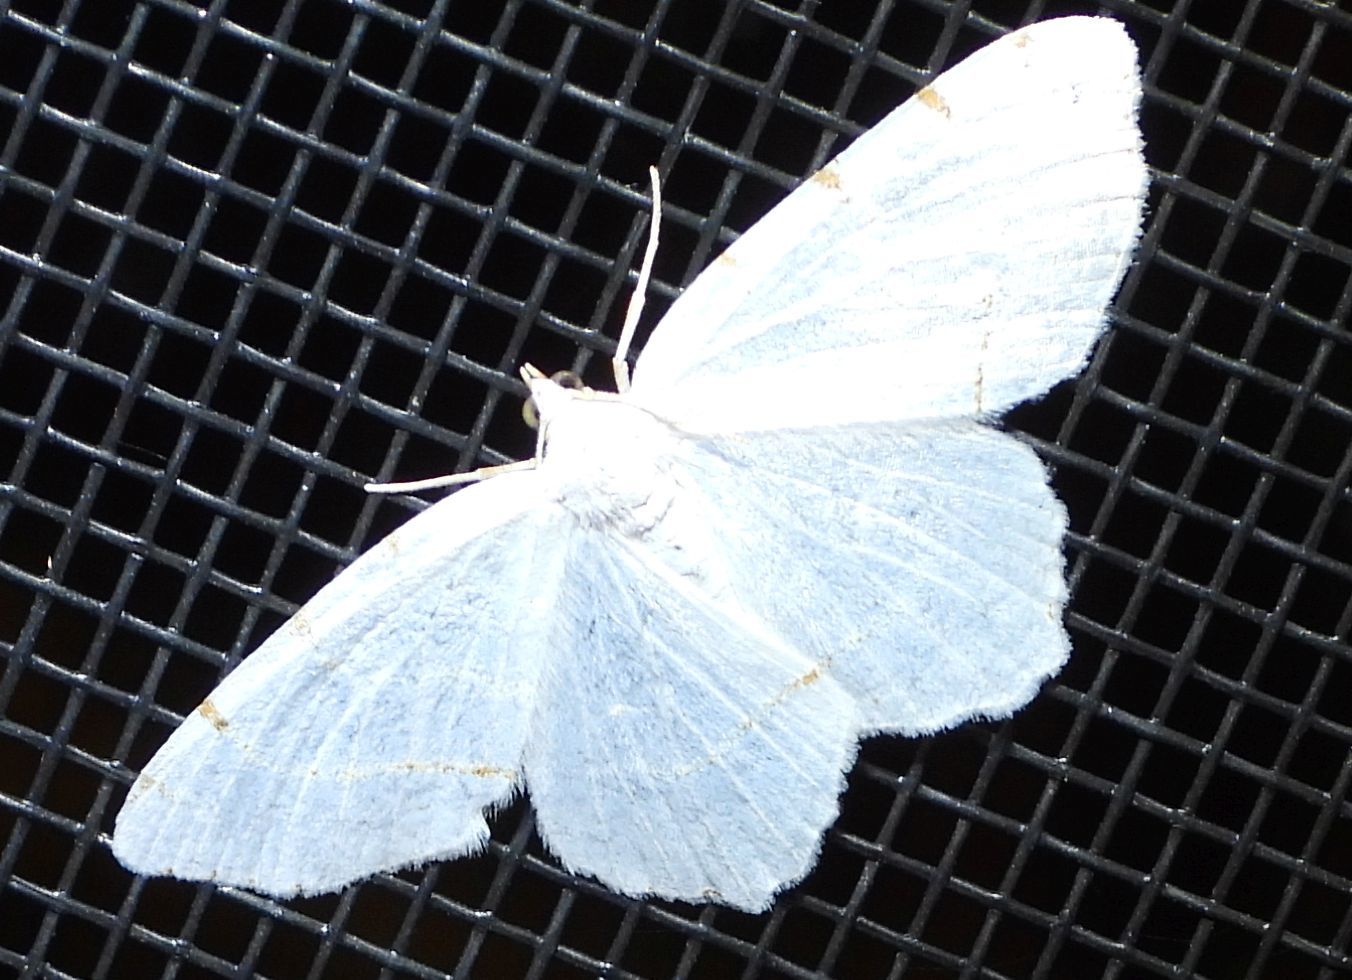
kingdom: Animalia
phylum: Arthropoda
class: Insecta
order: Lepidoptera
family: Geometridae
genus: Macaria
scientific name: Macaria pustularia
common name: Lesser maple spanworm moth
